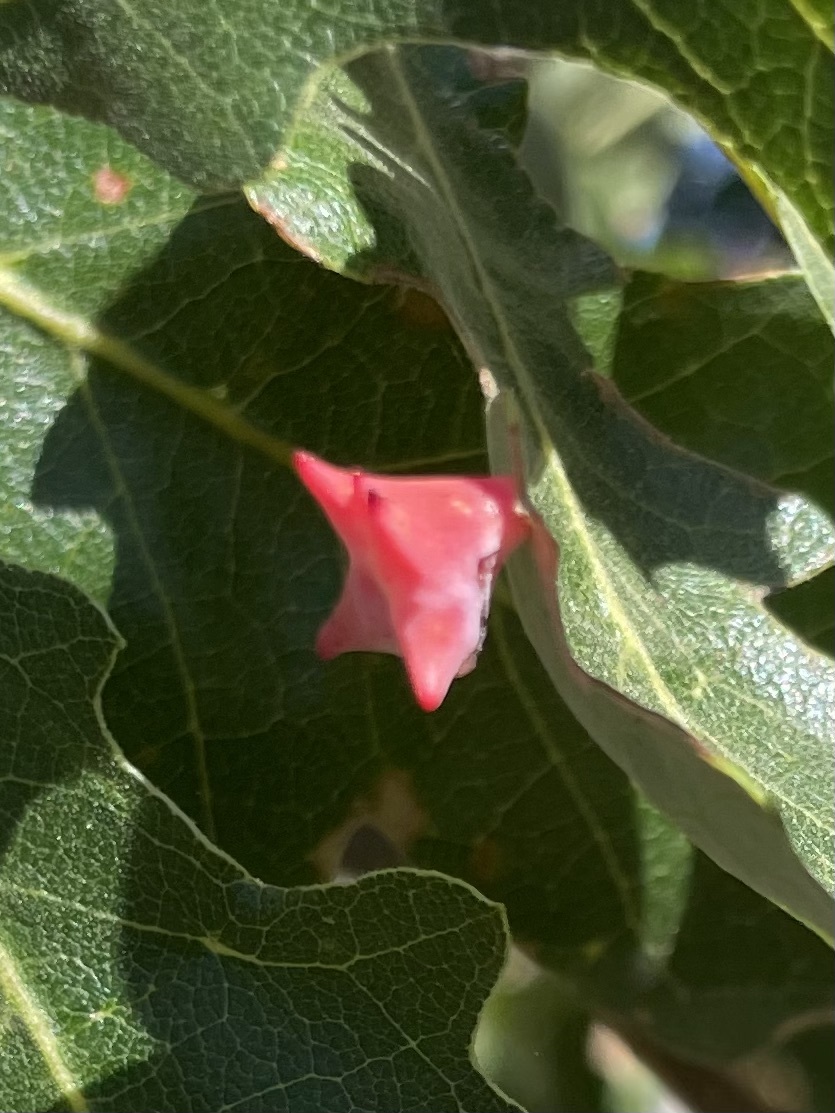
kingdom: Animalia
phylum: Arthropoda
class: Insecta
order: Hymenoptera
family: Cynipidae
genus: Cynips
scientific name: Cynips douglasi
